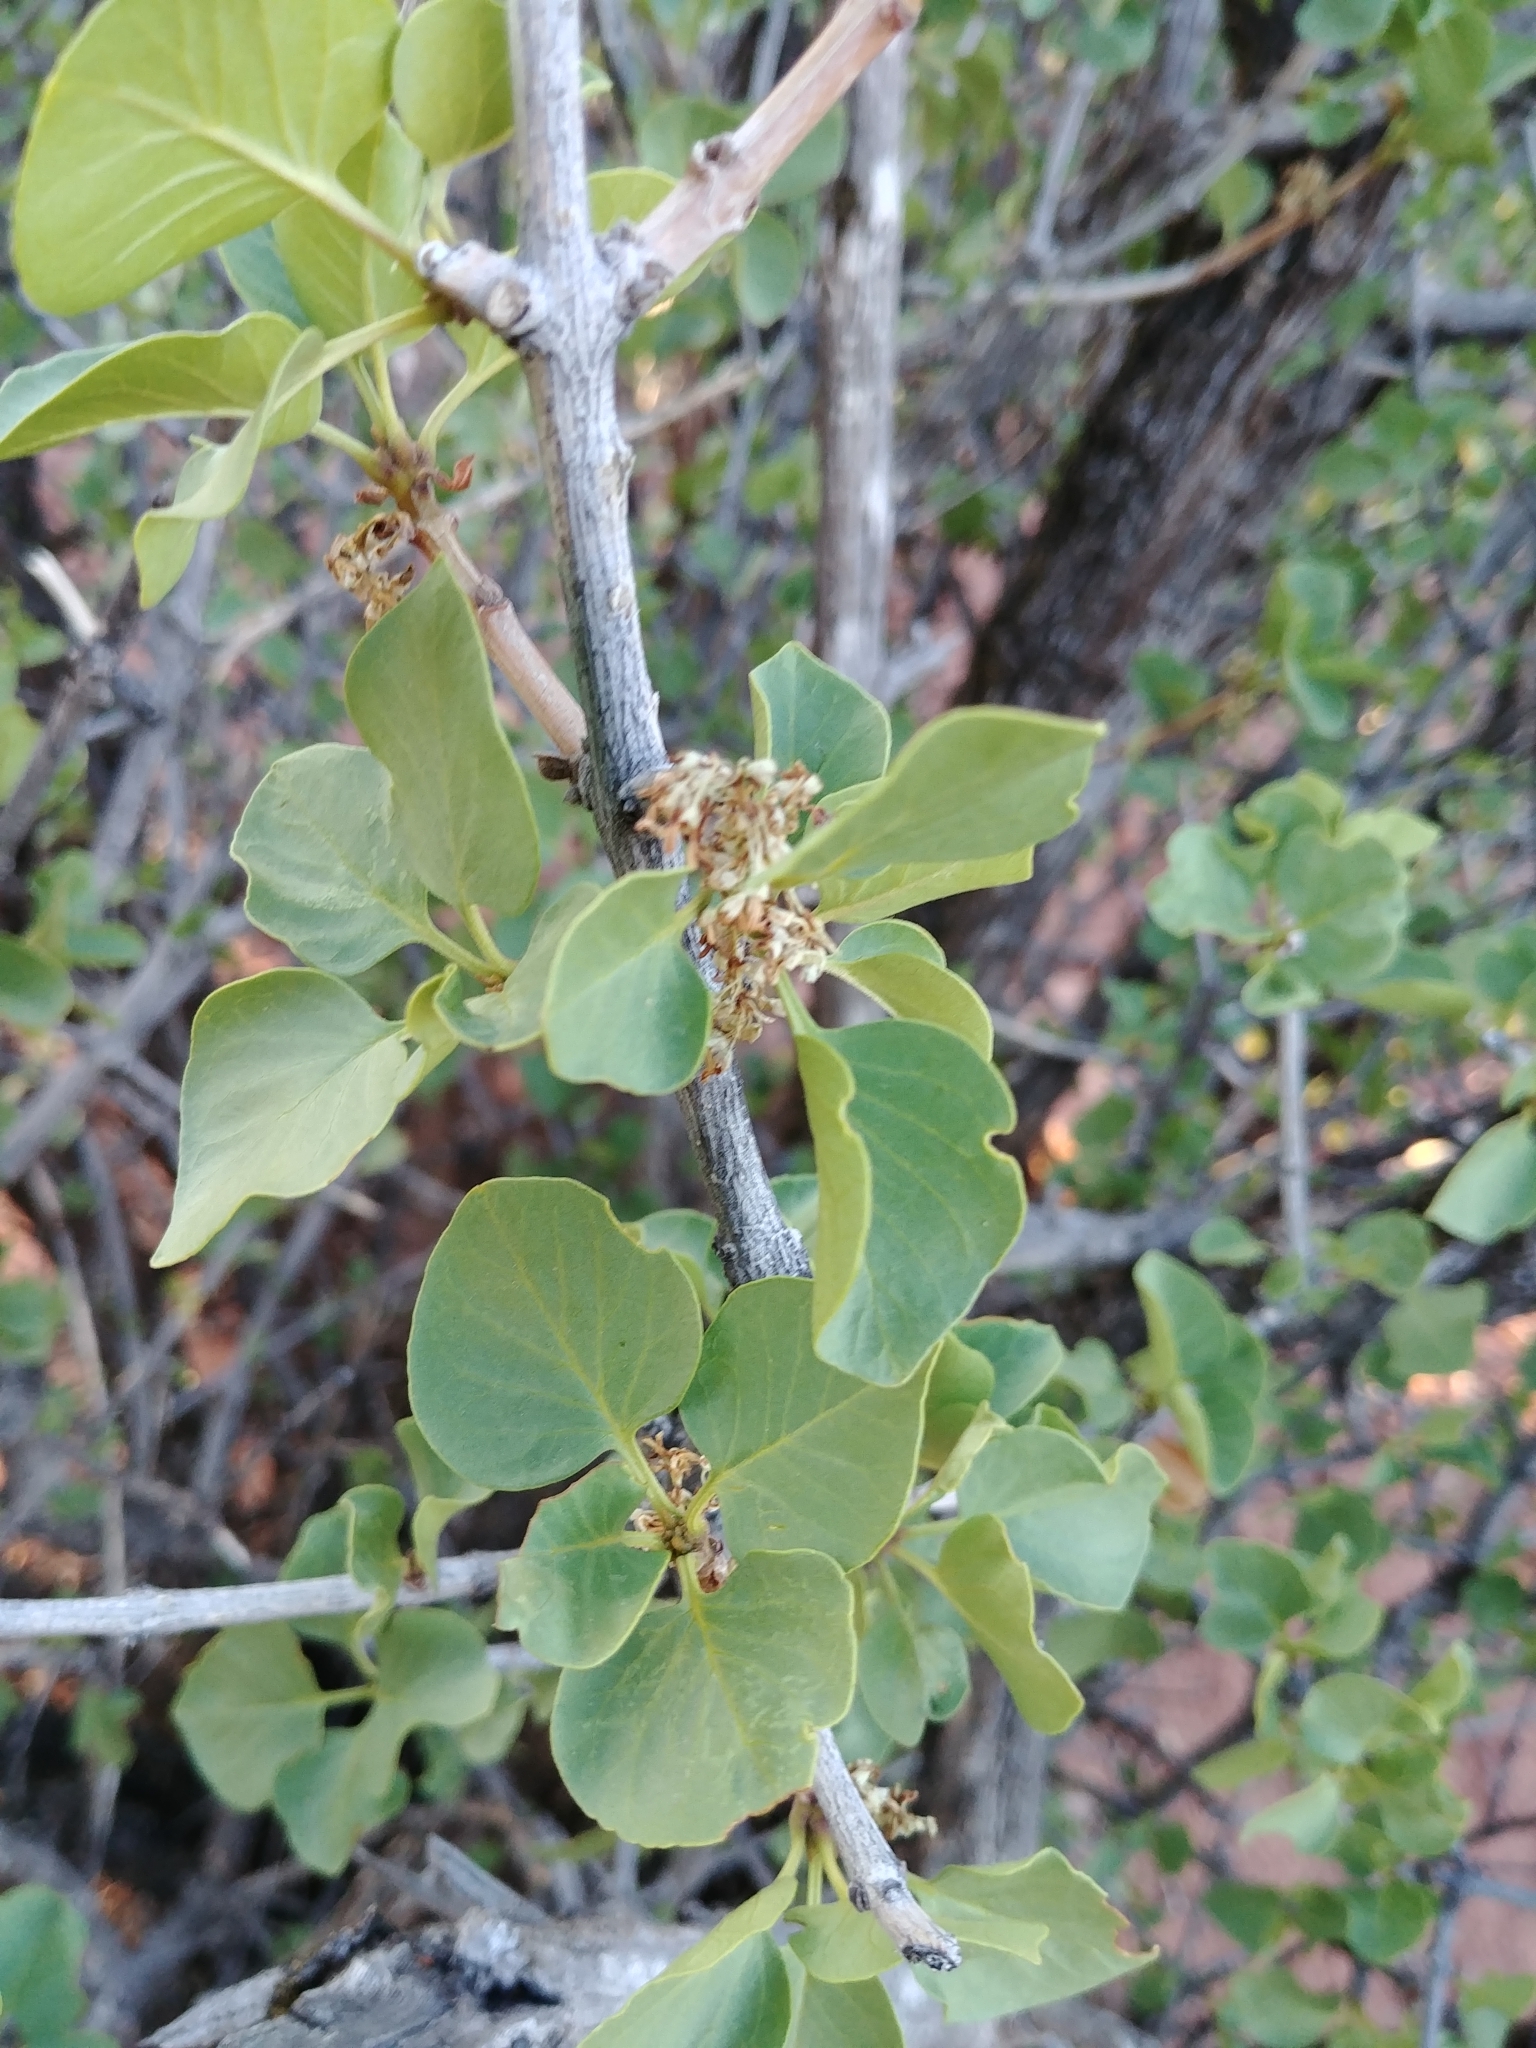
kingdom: Plantae
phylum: Tracheophyta
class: Magnoliopsida
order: Lamiales
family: Oleaceae
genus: Fraxinus
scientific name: Fraxinus anomala
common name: Utah ash
